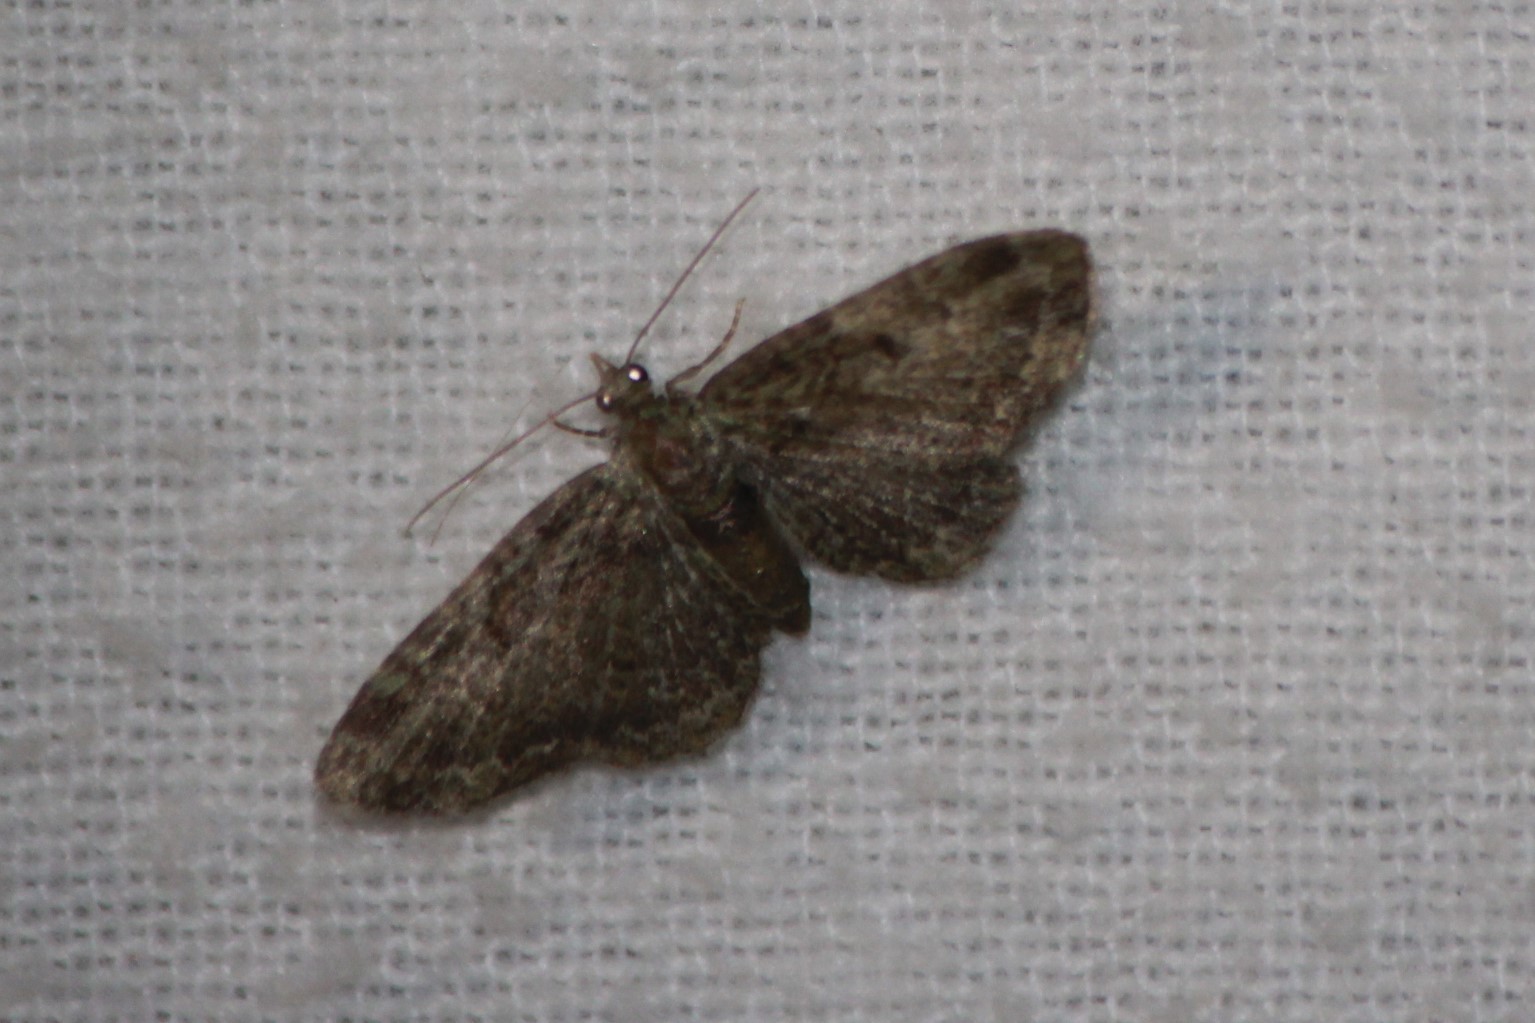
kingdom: Animalia
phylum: Arthropoda
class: Insecta
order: Lepidoptera
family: Geometridae
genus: Pasiphila
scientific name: Pasiphila rectangulata
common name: Green pug
